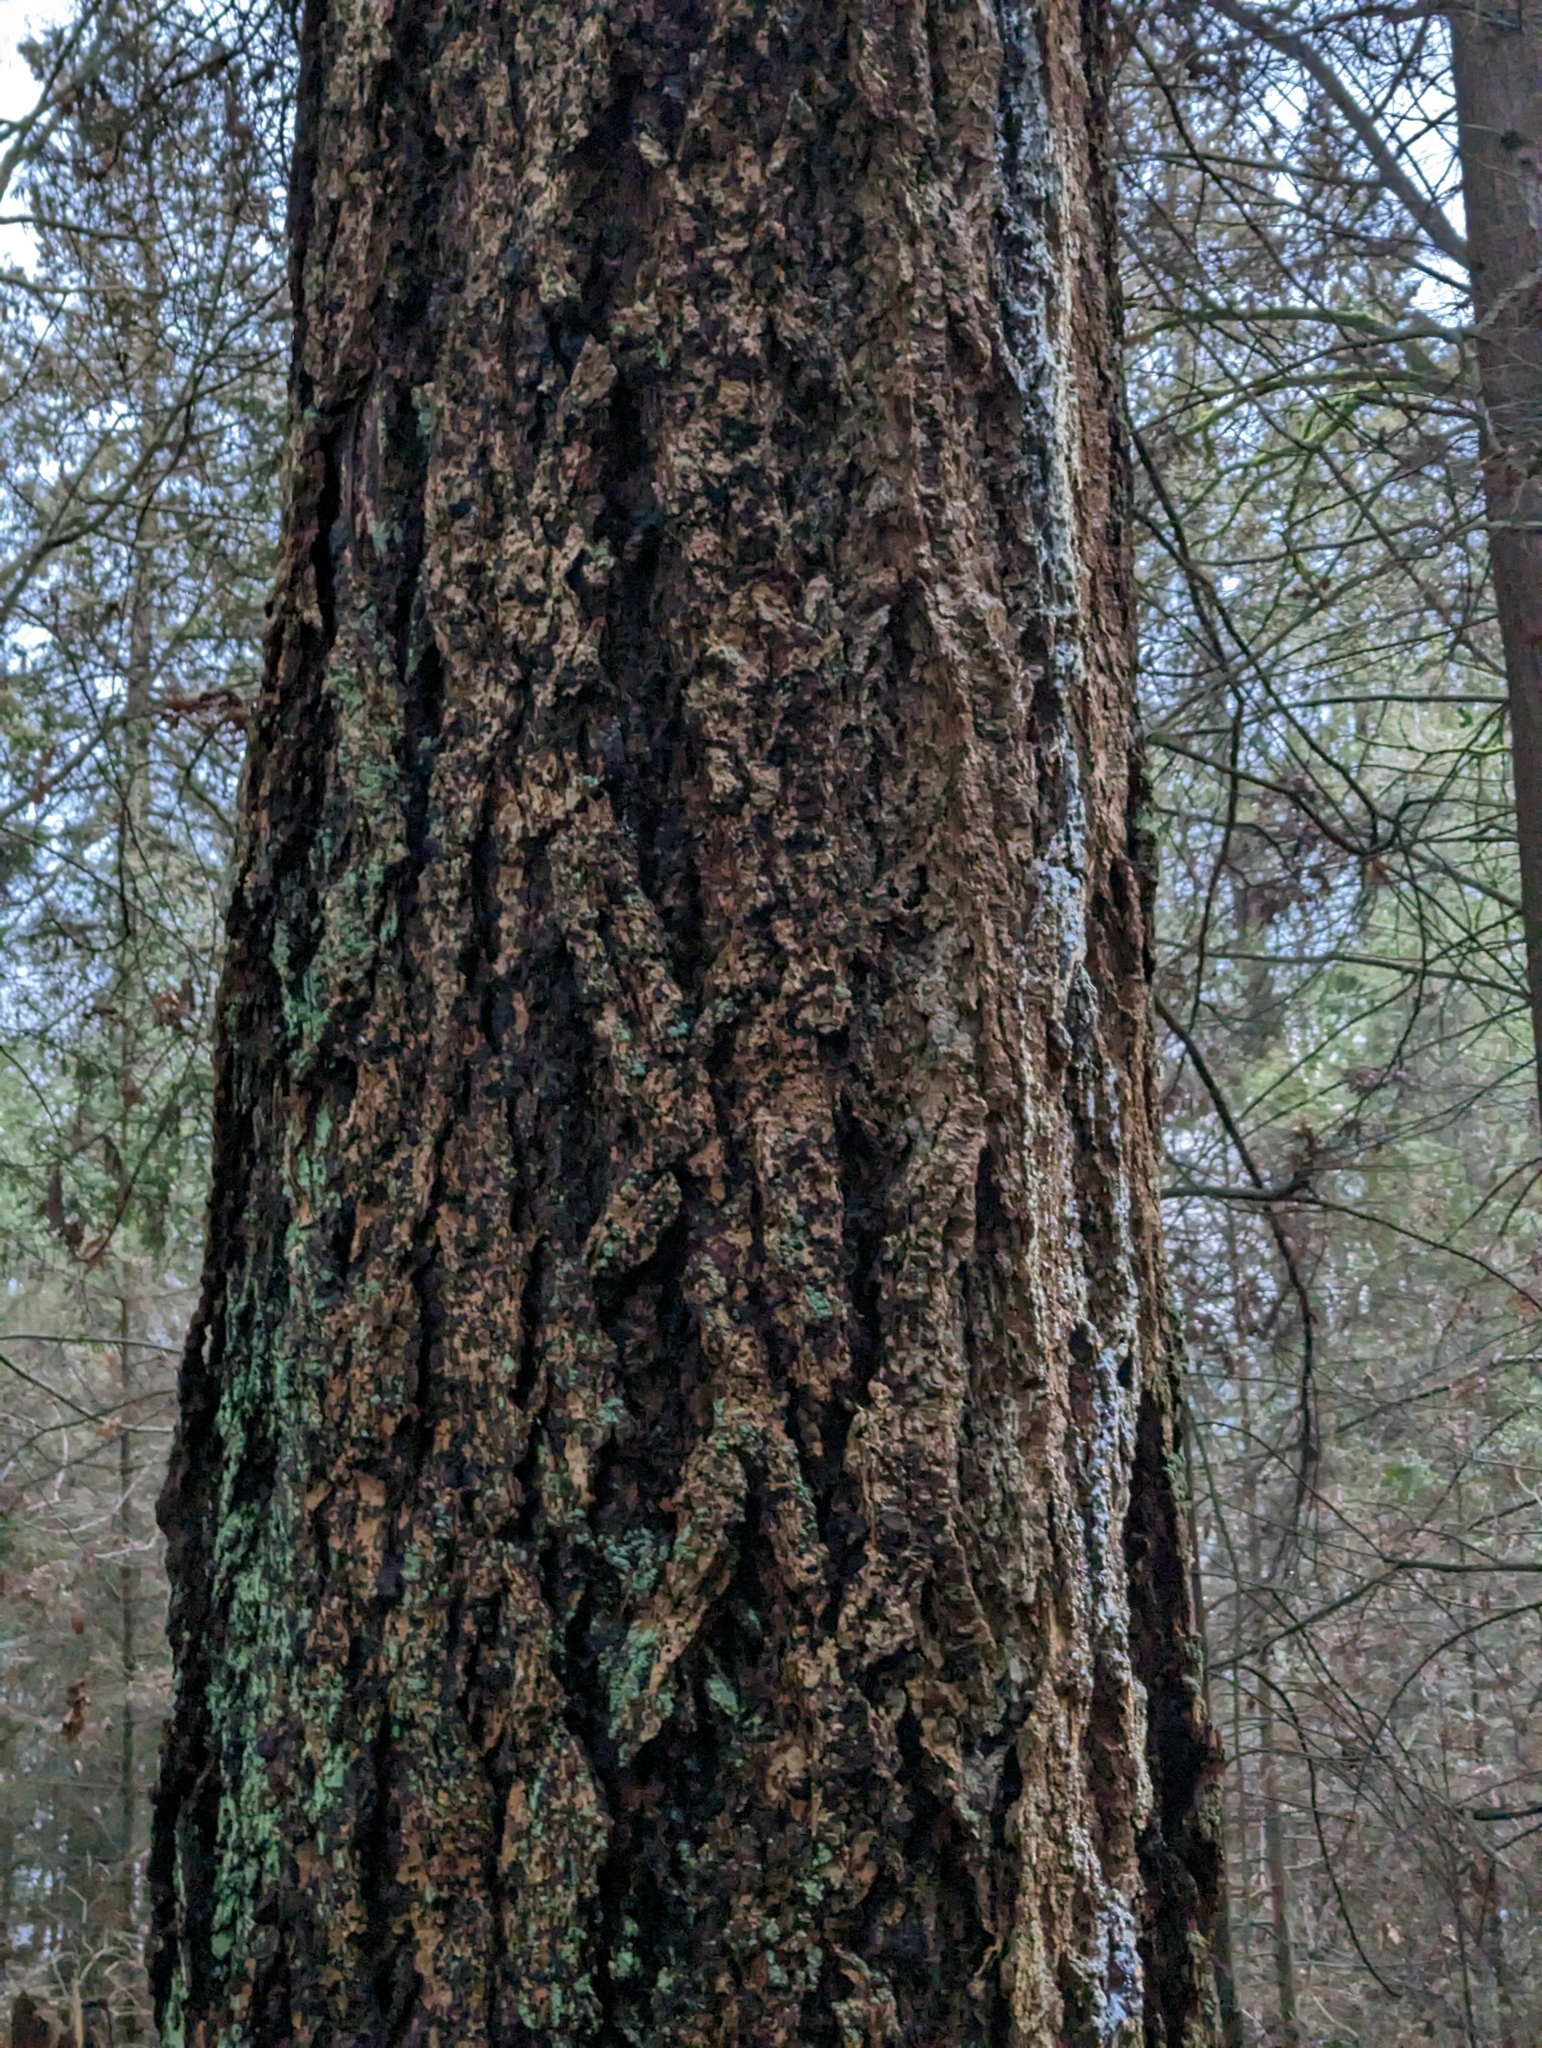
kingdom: Plantae
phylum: Tracheophyta
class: Pinopsida
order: Pinales
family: Pinaceae
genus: Pseudotsuga
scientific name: Pseudotsuga menziesii
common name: Douglas fir
